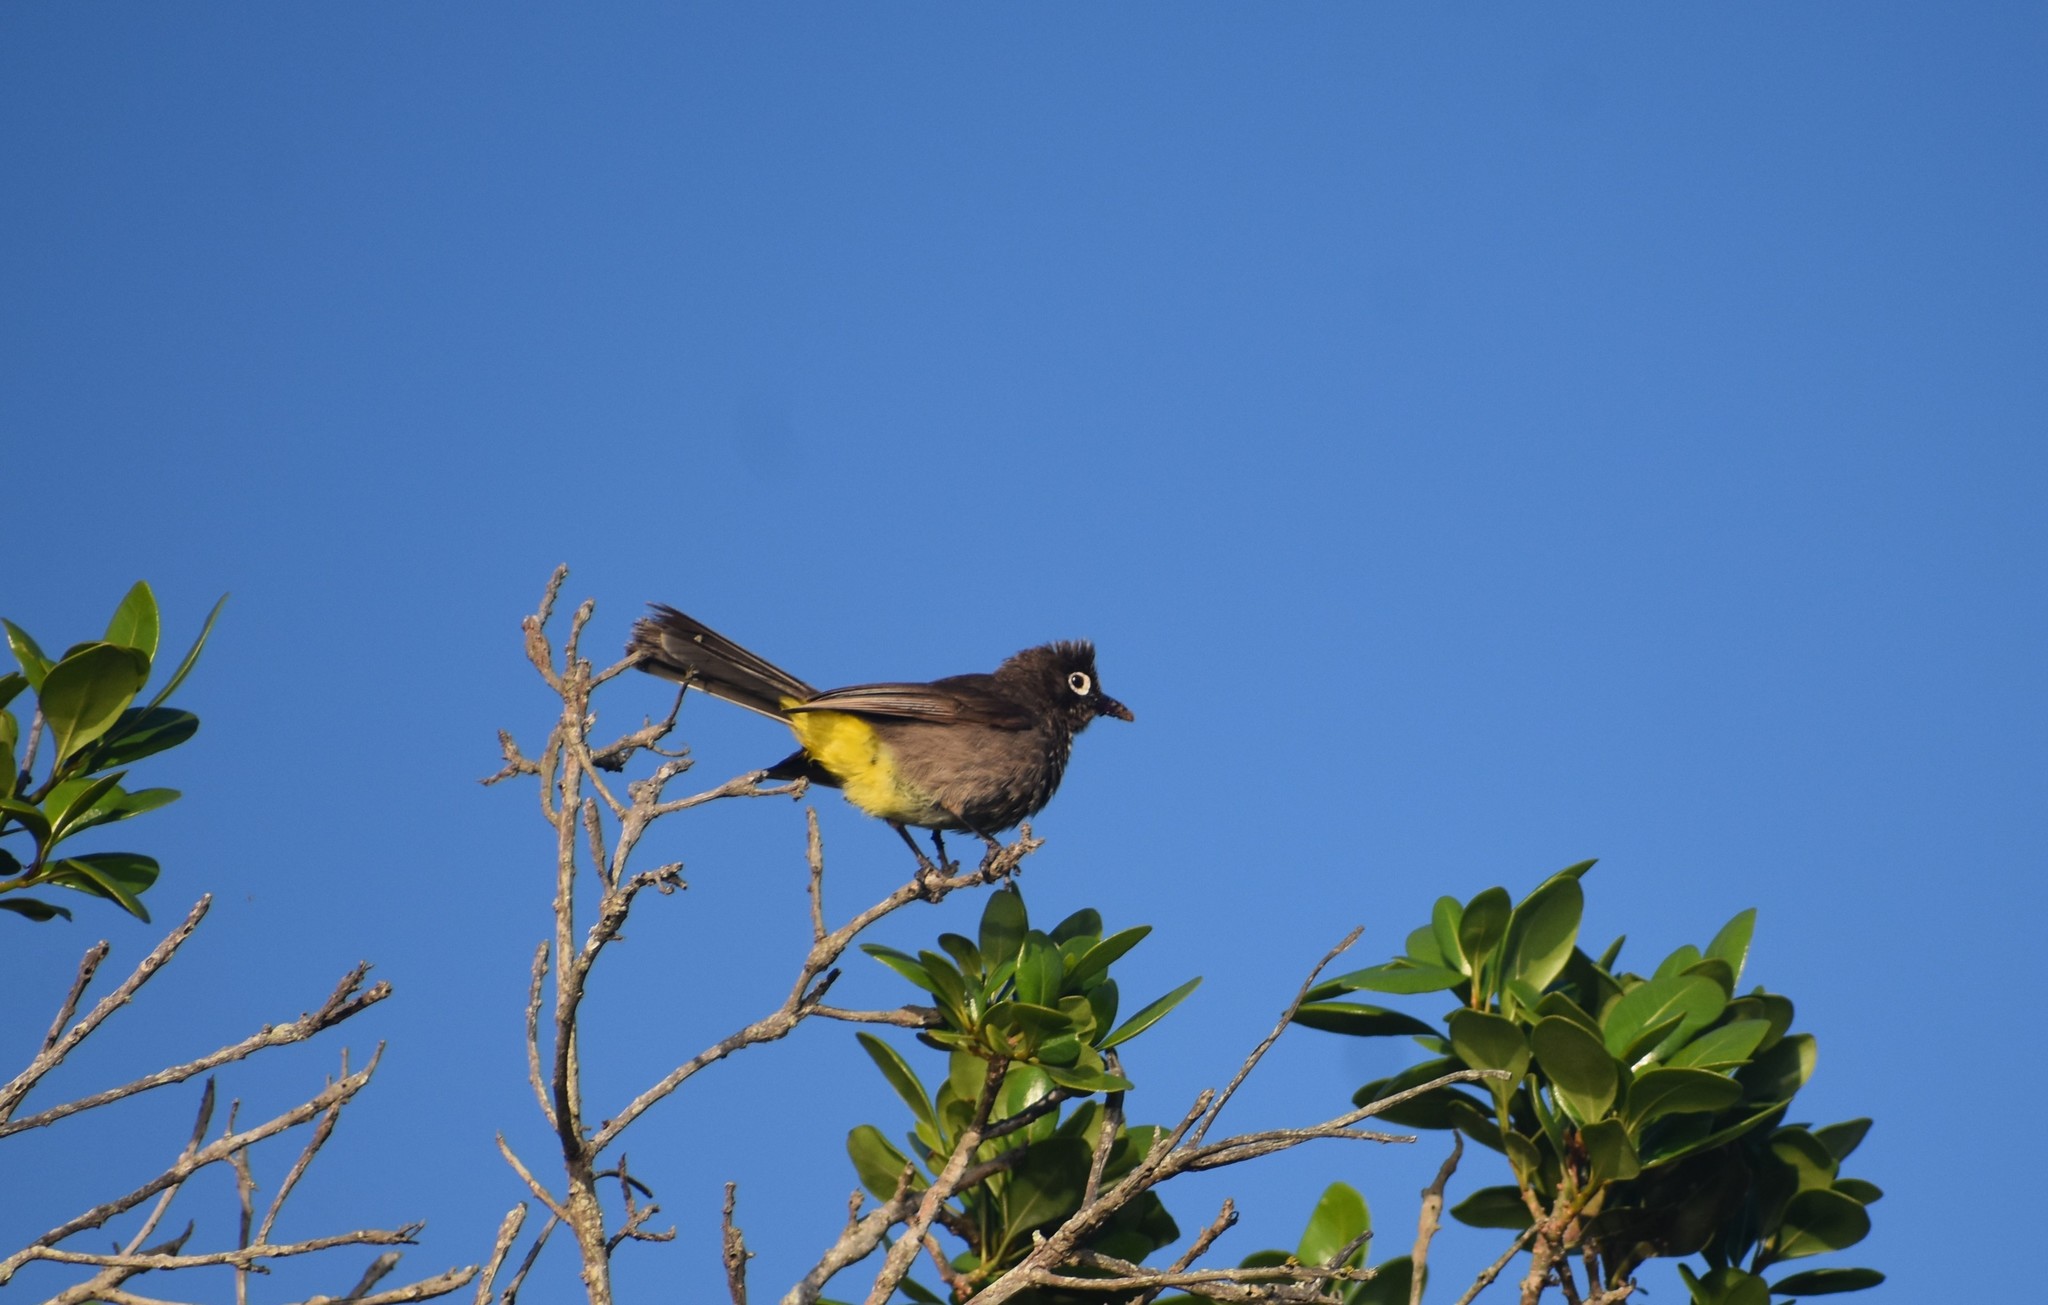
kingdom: Animalia
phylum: Chordata
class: Aves
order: Passeriformes
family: Pycnonotidae
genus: Pycnonotus
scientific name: Pycnonotus capensis
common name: Cape bulbul
